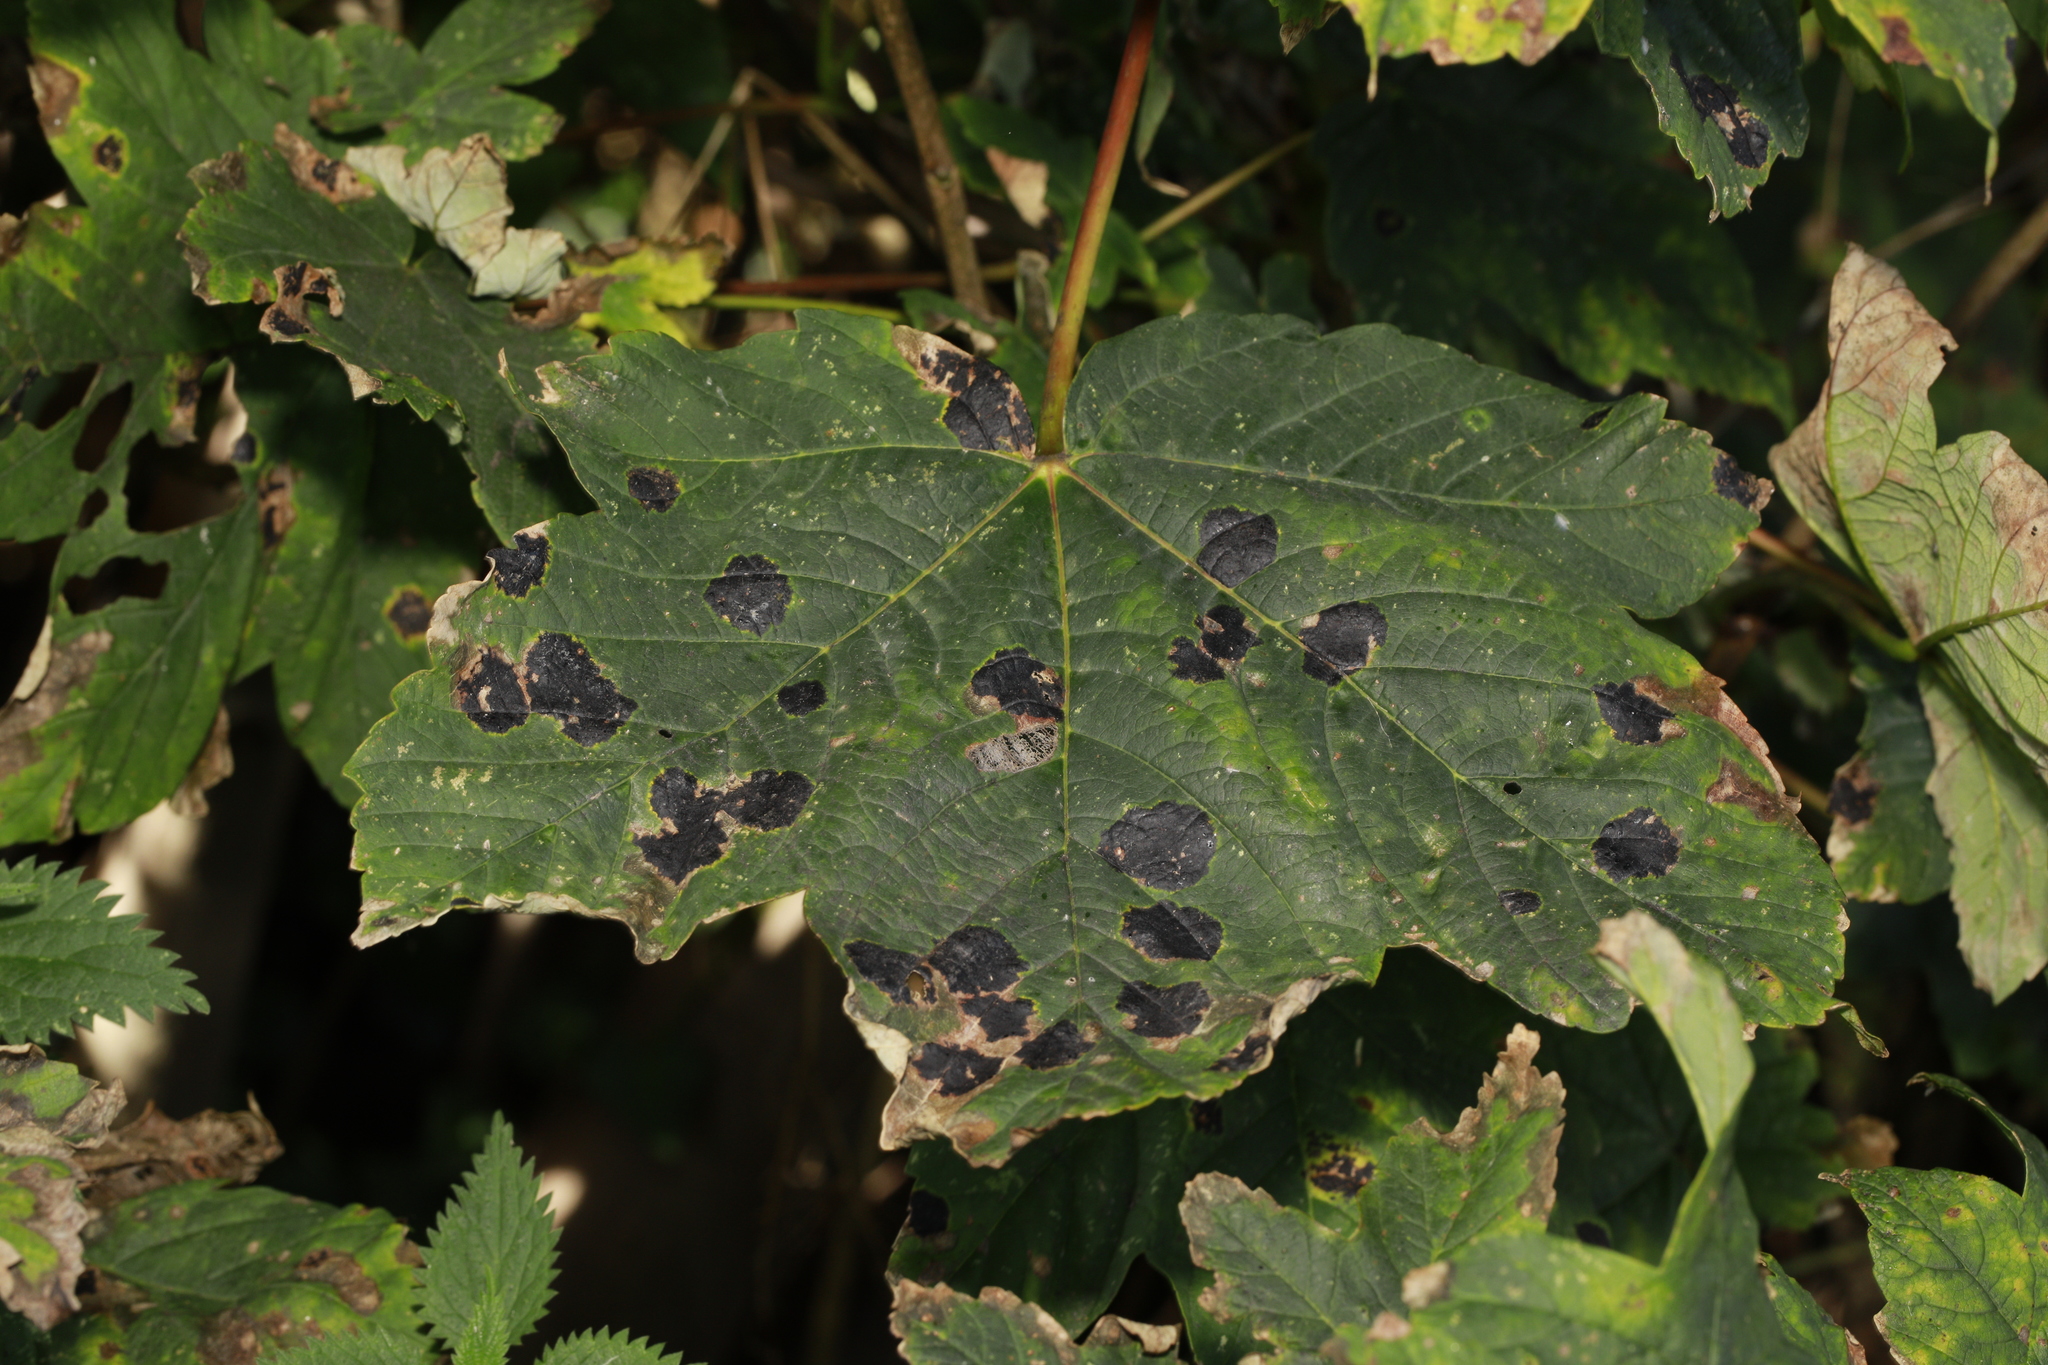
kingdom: Fungi
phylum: Ascomycota
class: Leotiomycetes
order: Rhytismatales
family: Rhytismataceae
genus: Rhytisma
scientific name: Rhytisma acerinum
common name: European tar spot
